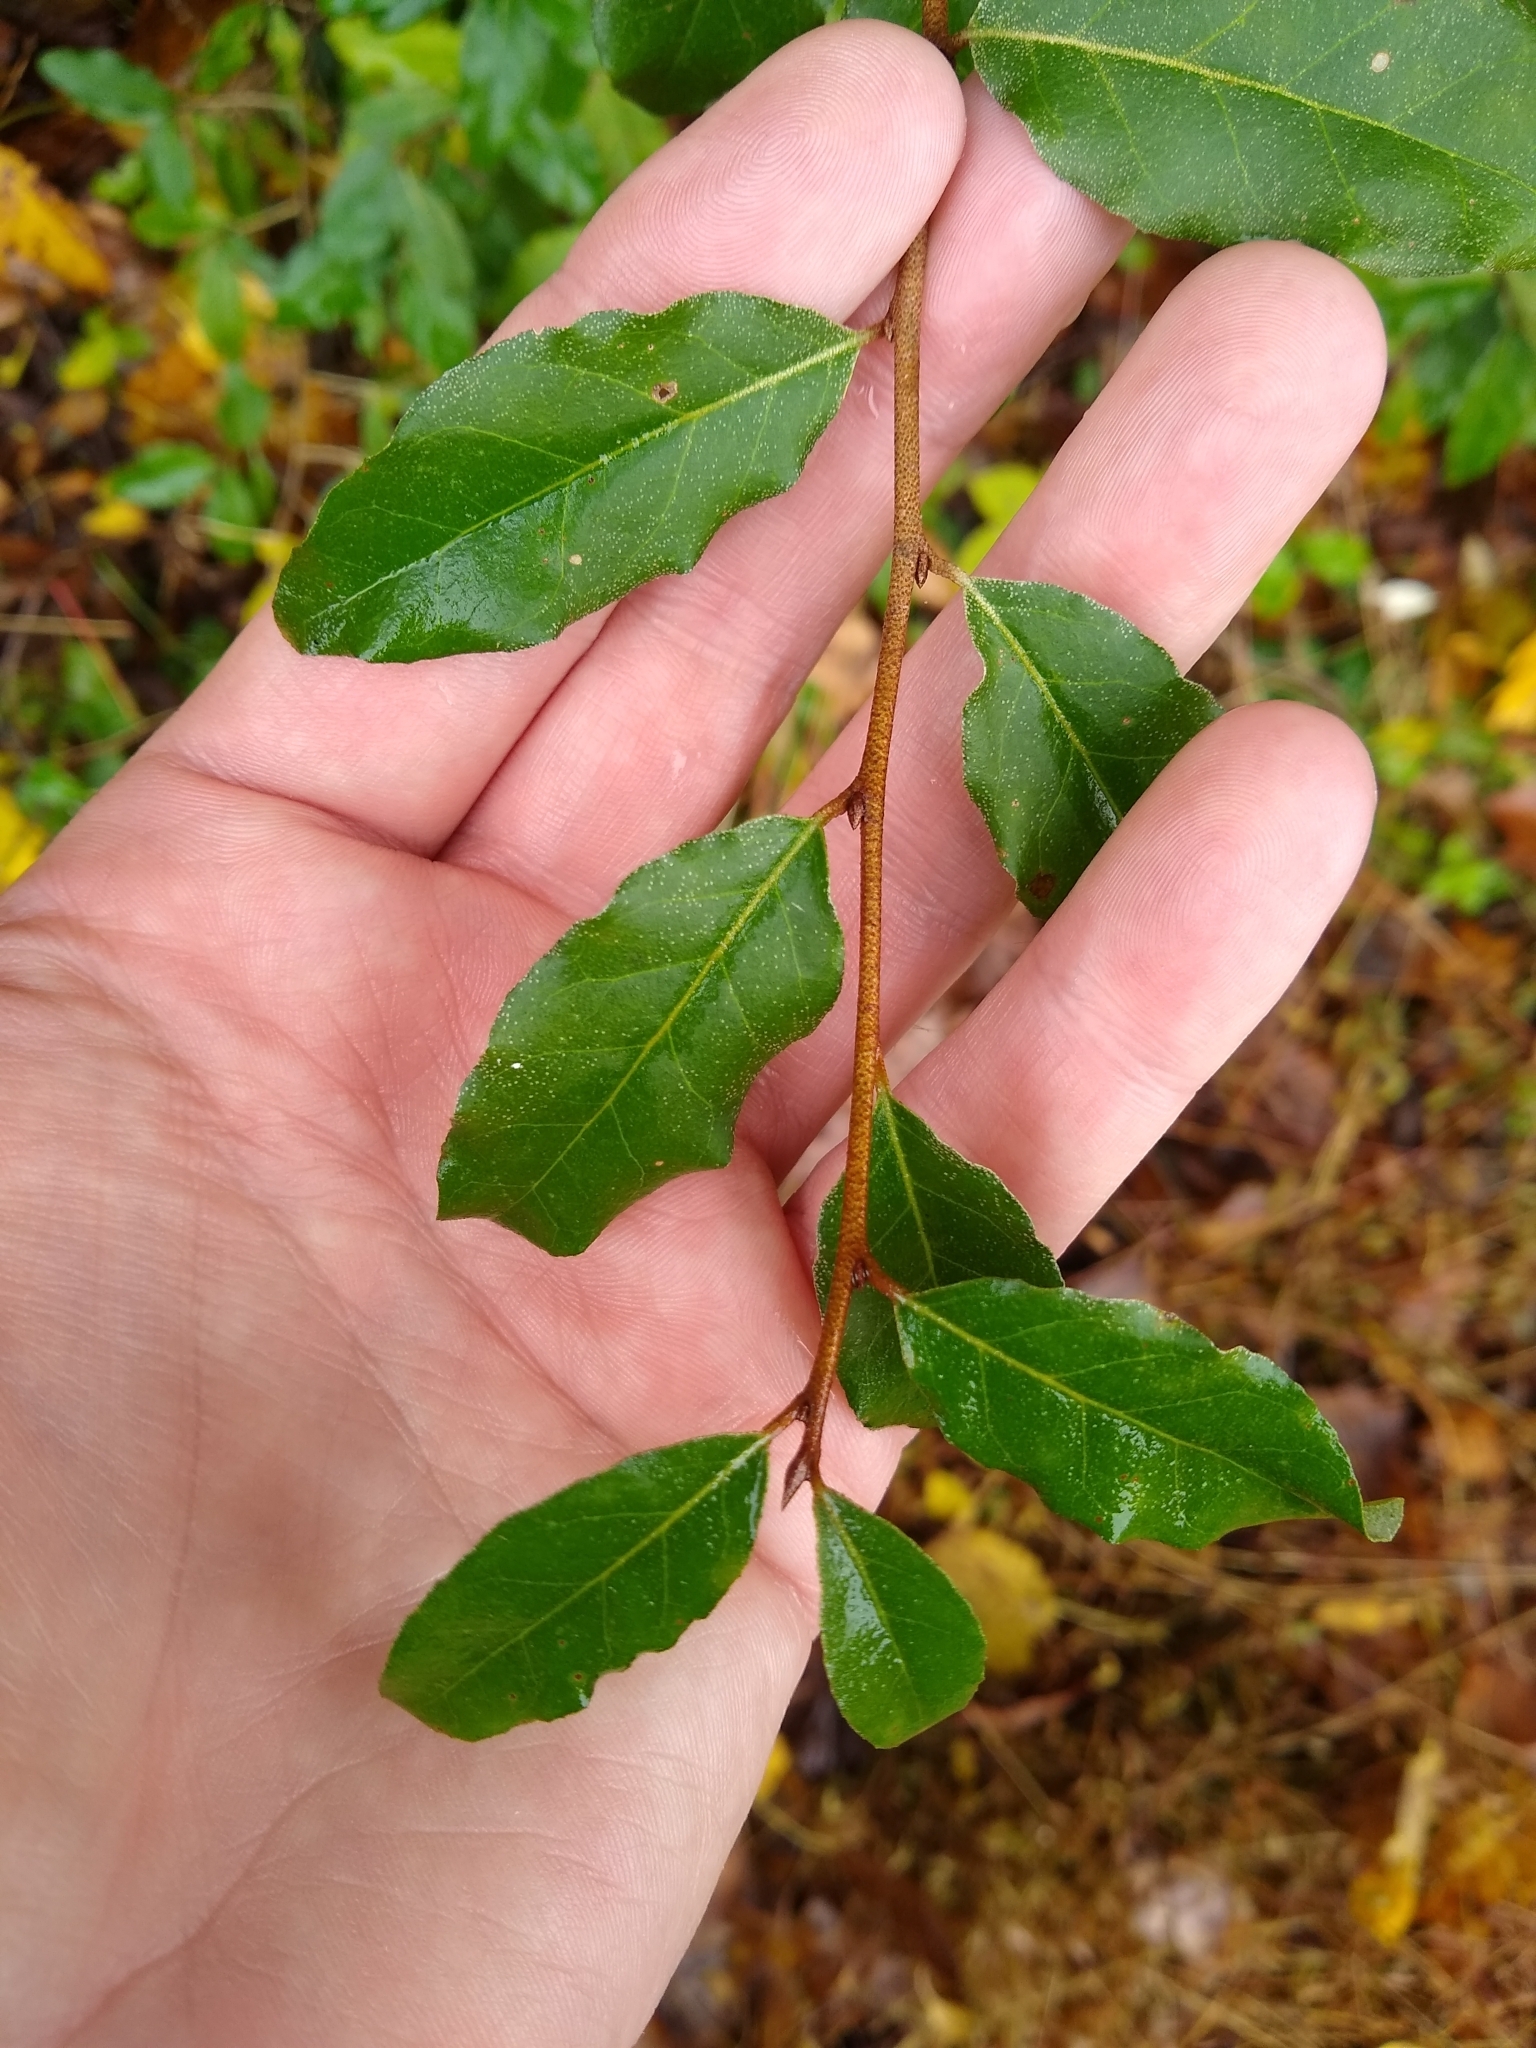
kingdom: Plantae
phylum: Tracheophyta
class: Magnoliopsida
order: Rosales
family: Elaeagnaceae
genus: Elaeagnus
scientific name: Elaeagnus umbellata
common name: Autumn olive
